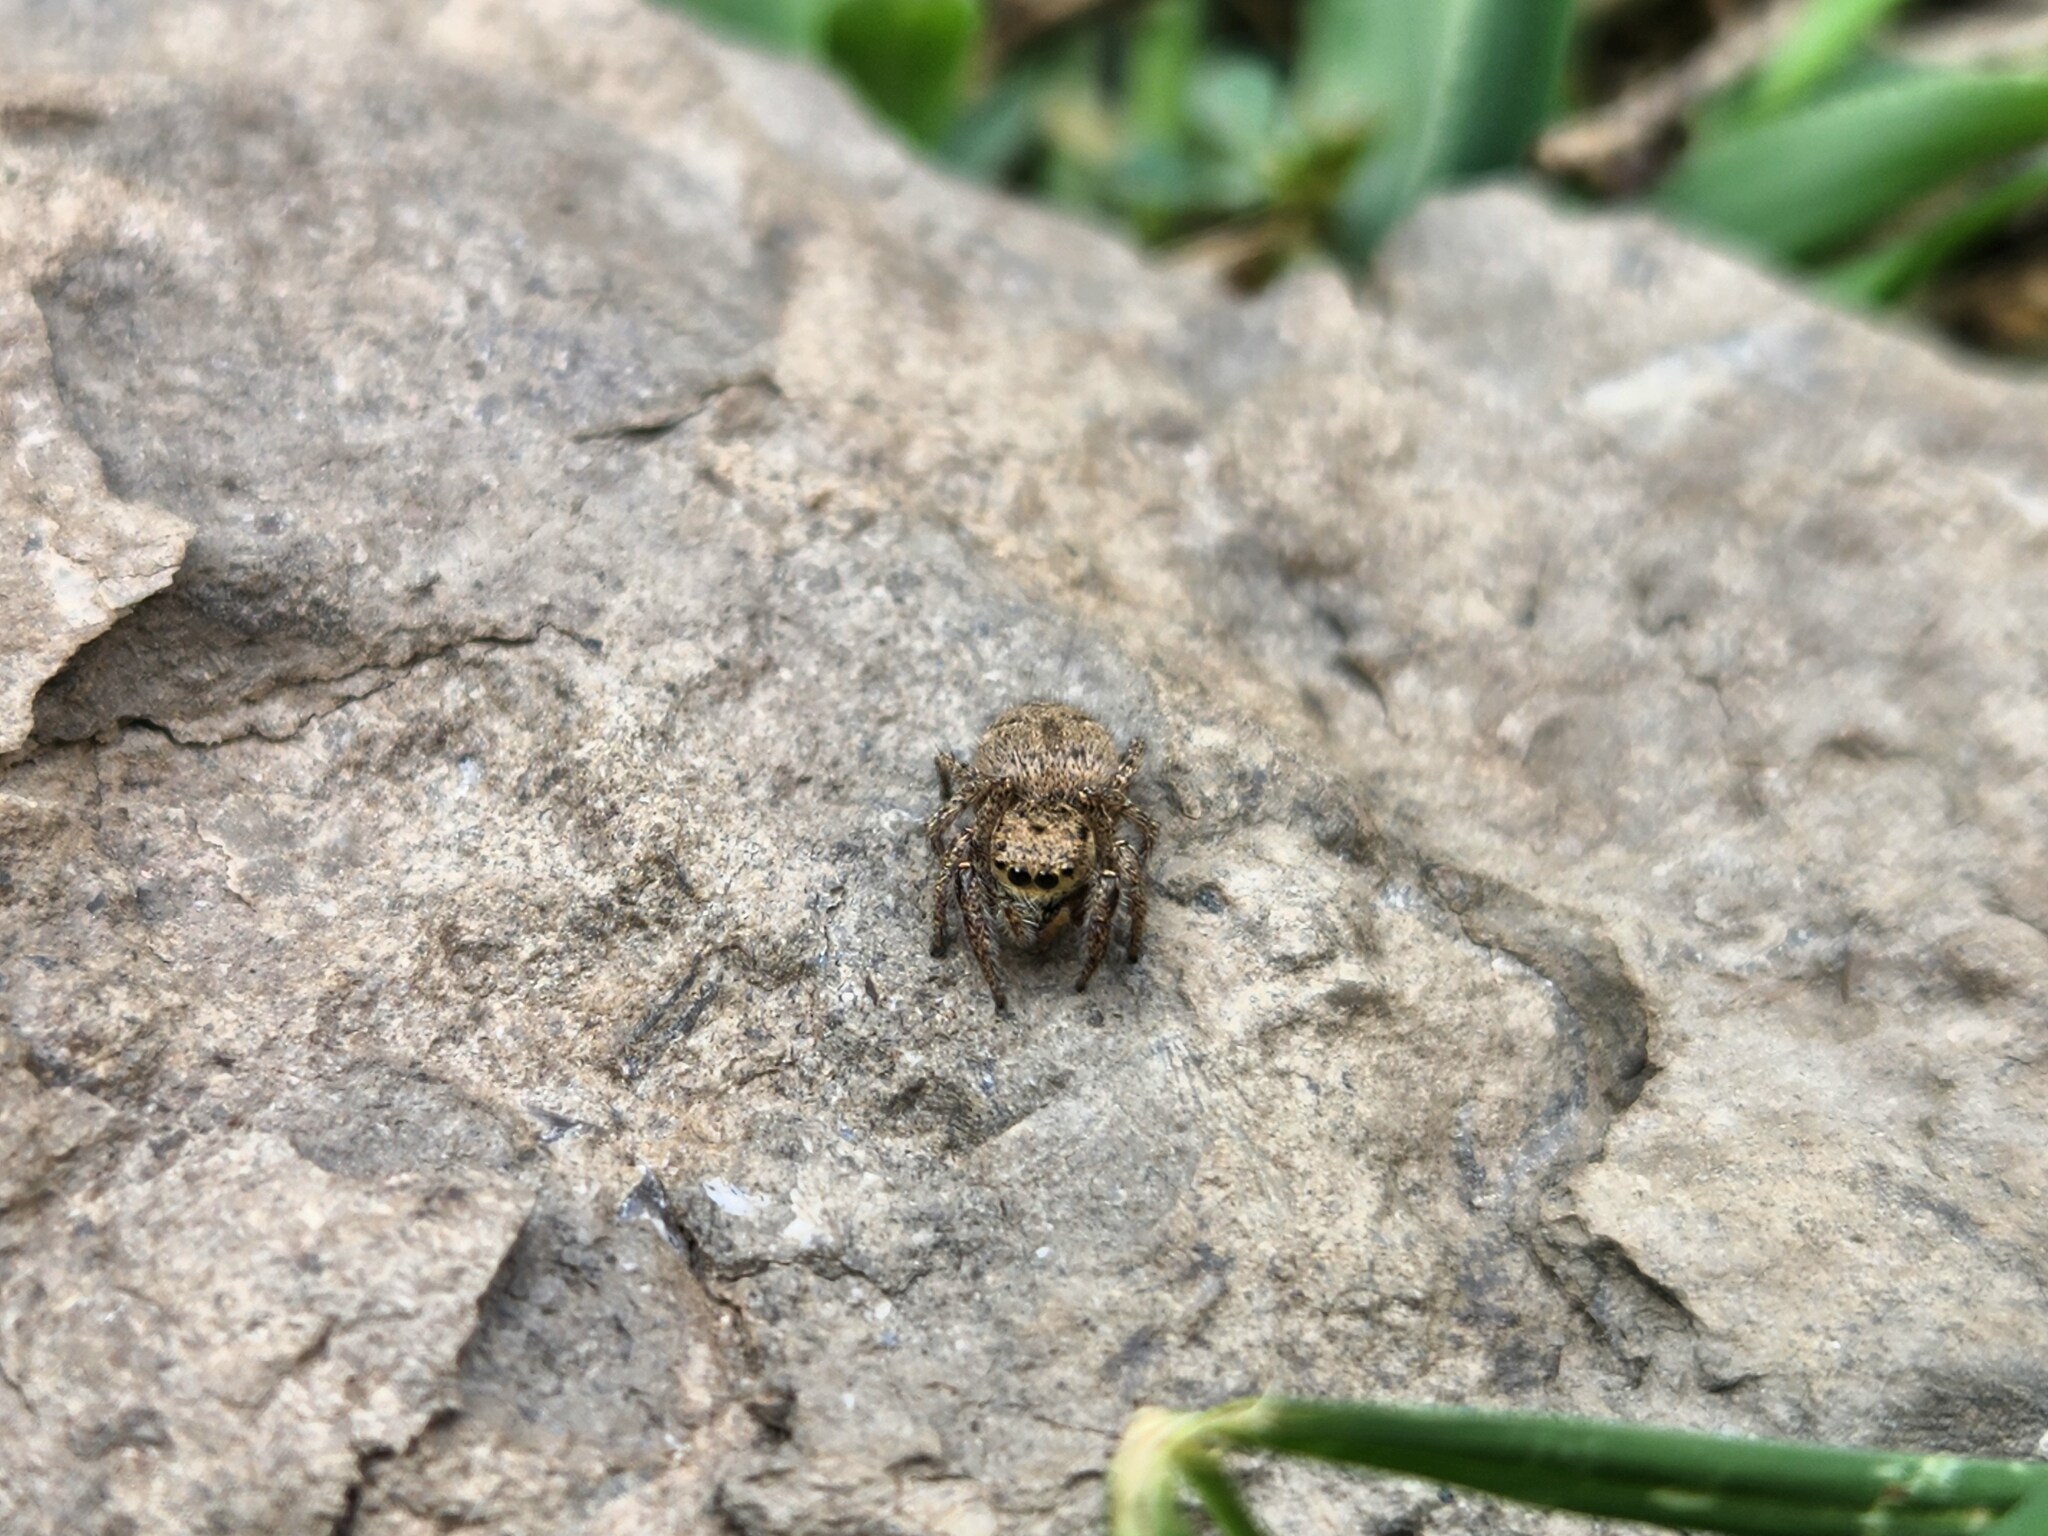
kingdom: Animalia
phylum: Arthropoda
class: Arachnida
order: Araneae
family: Salticidae
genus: Habronattus
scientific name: Habronattus coecatus
